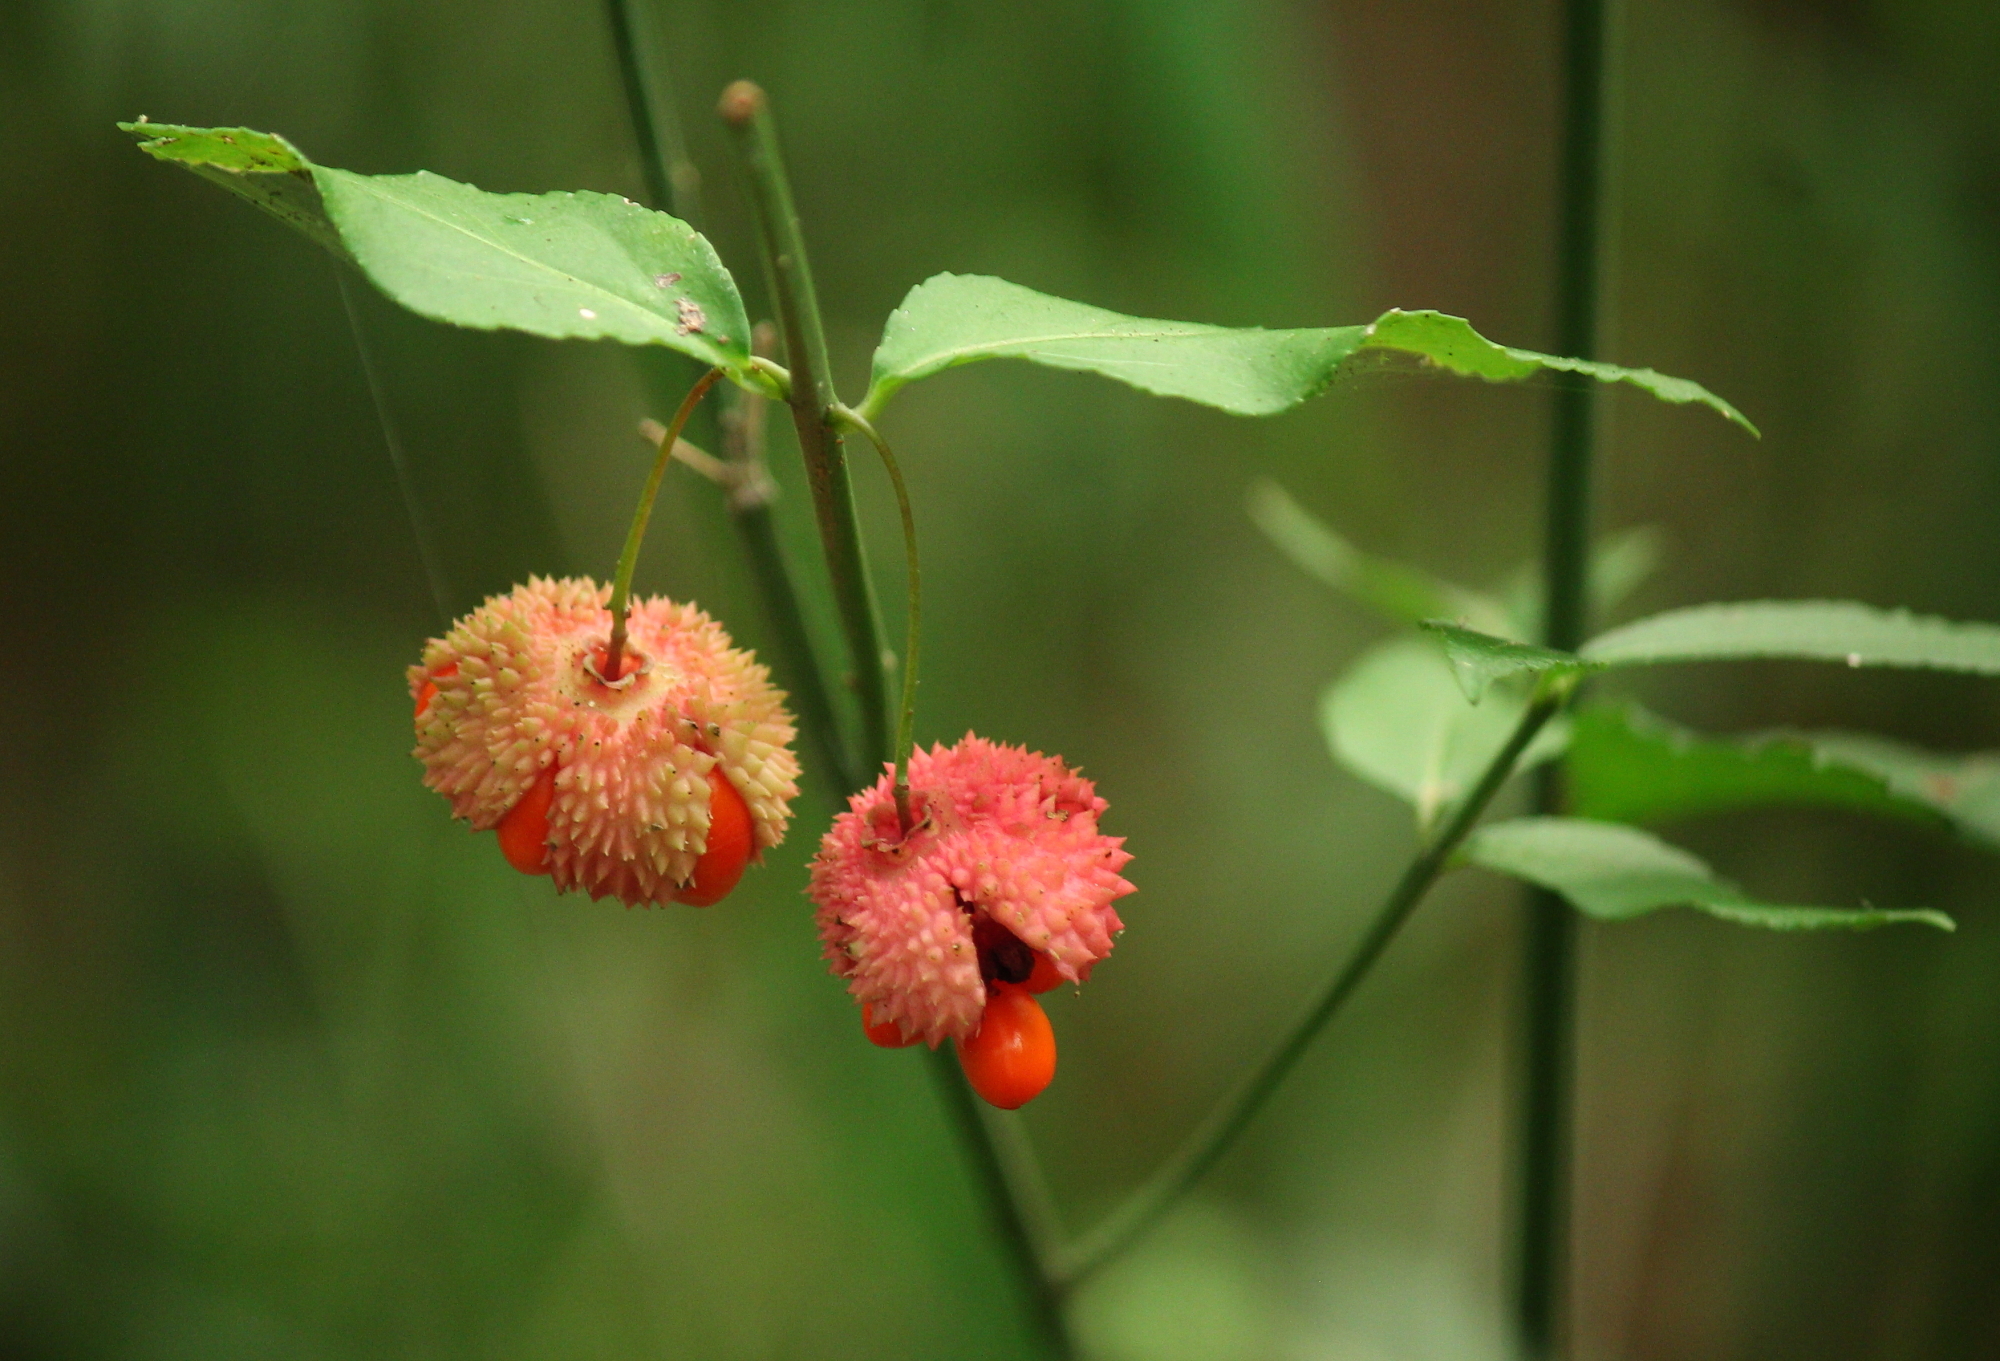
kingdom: Plantae
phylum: Tracheophyta
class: Magnoliopsida
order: Celastrales
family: Celastraceae
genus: Euonymus
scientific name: Euonymus americanus
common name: Bursting-heart
